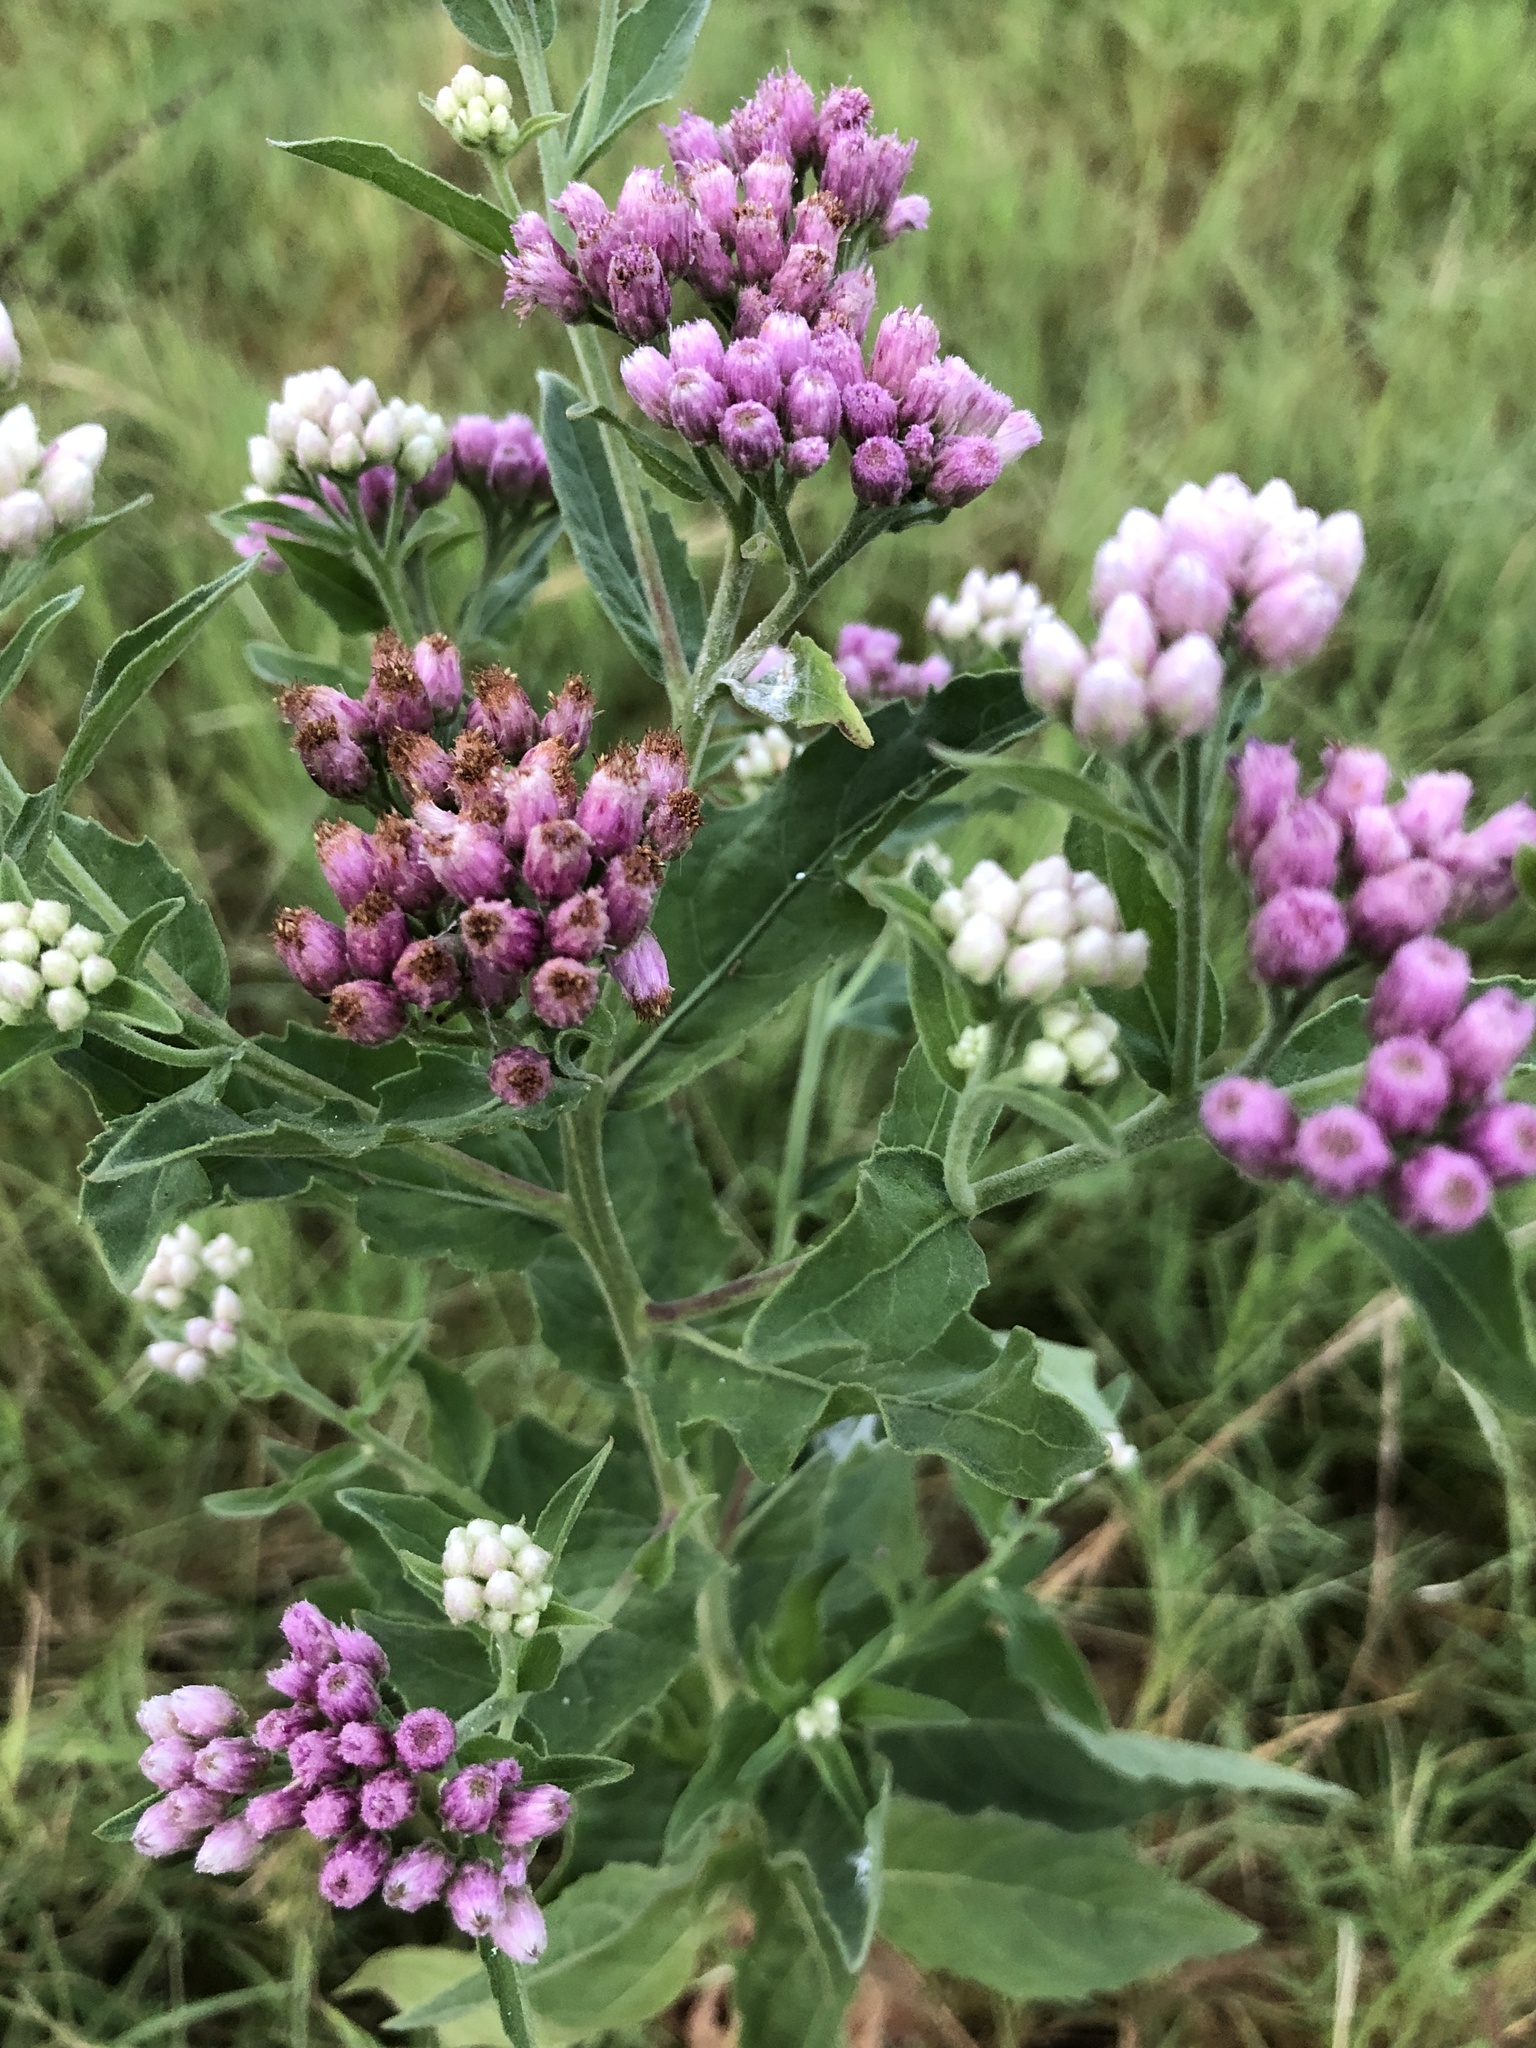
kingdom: Plantae
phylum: Tracheophyta
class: Magnoliopsida
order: Asterales
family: Asteraceae
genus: Pluchea
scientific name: Pluchea odorata
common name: Saltmarsh fleabane
